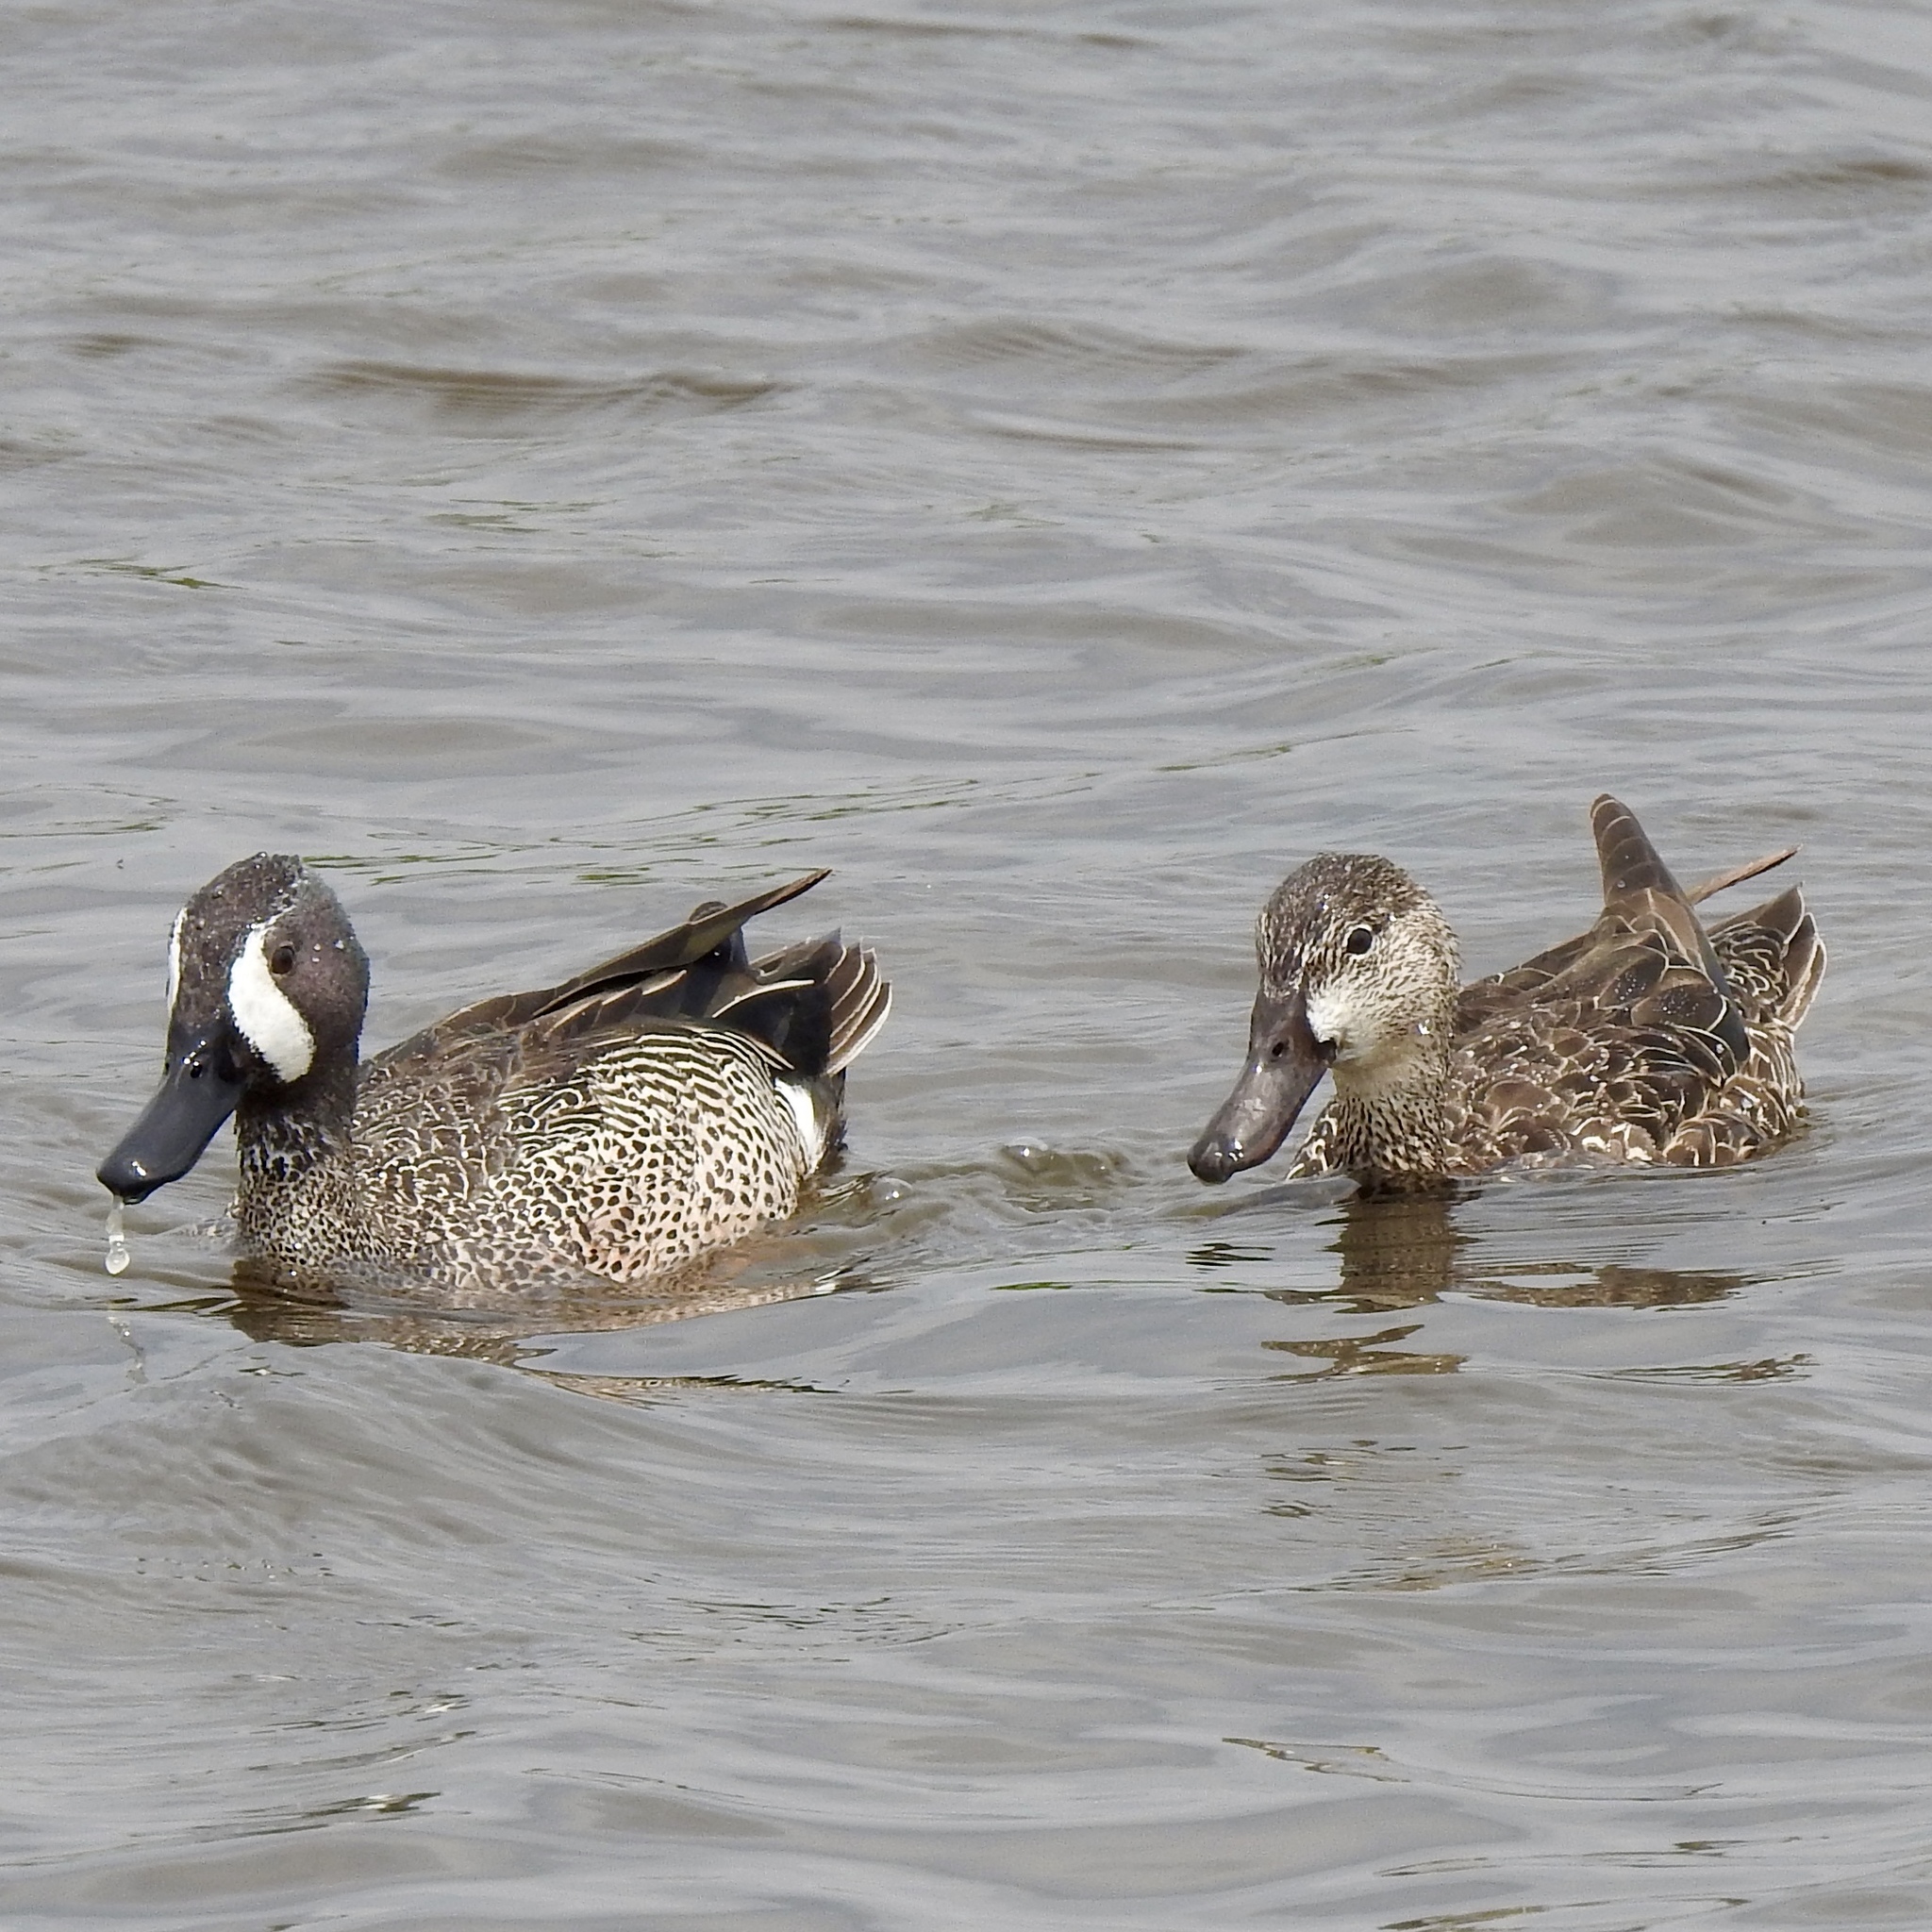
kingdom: Animalia
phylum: Chordata
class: Aves
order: Anseriformes
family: Anatidae
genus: Spatula
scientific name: Spatula discors
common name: Blue-winged teal
